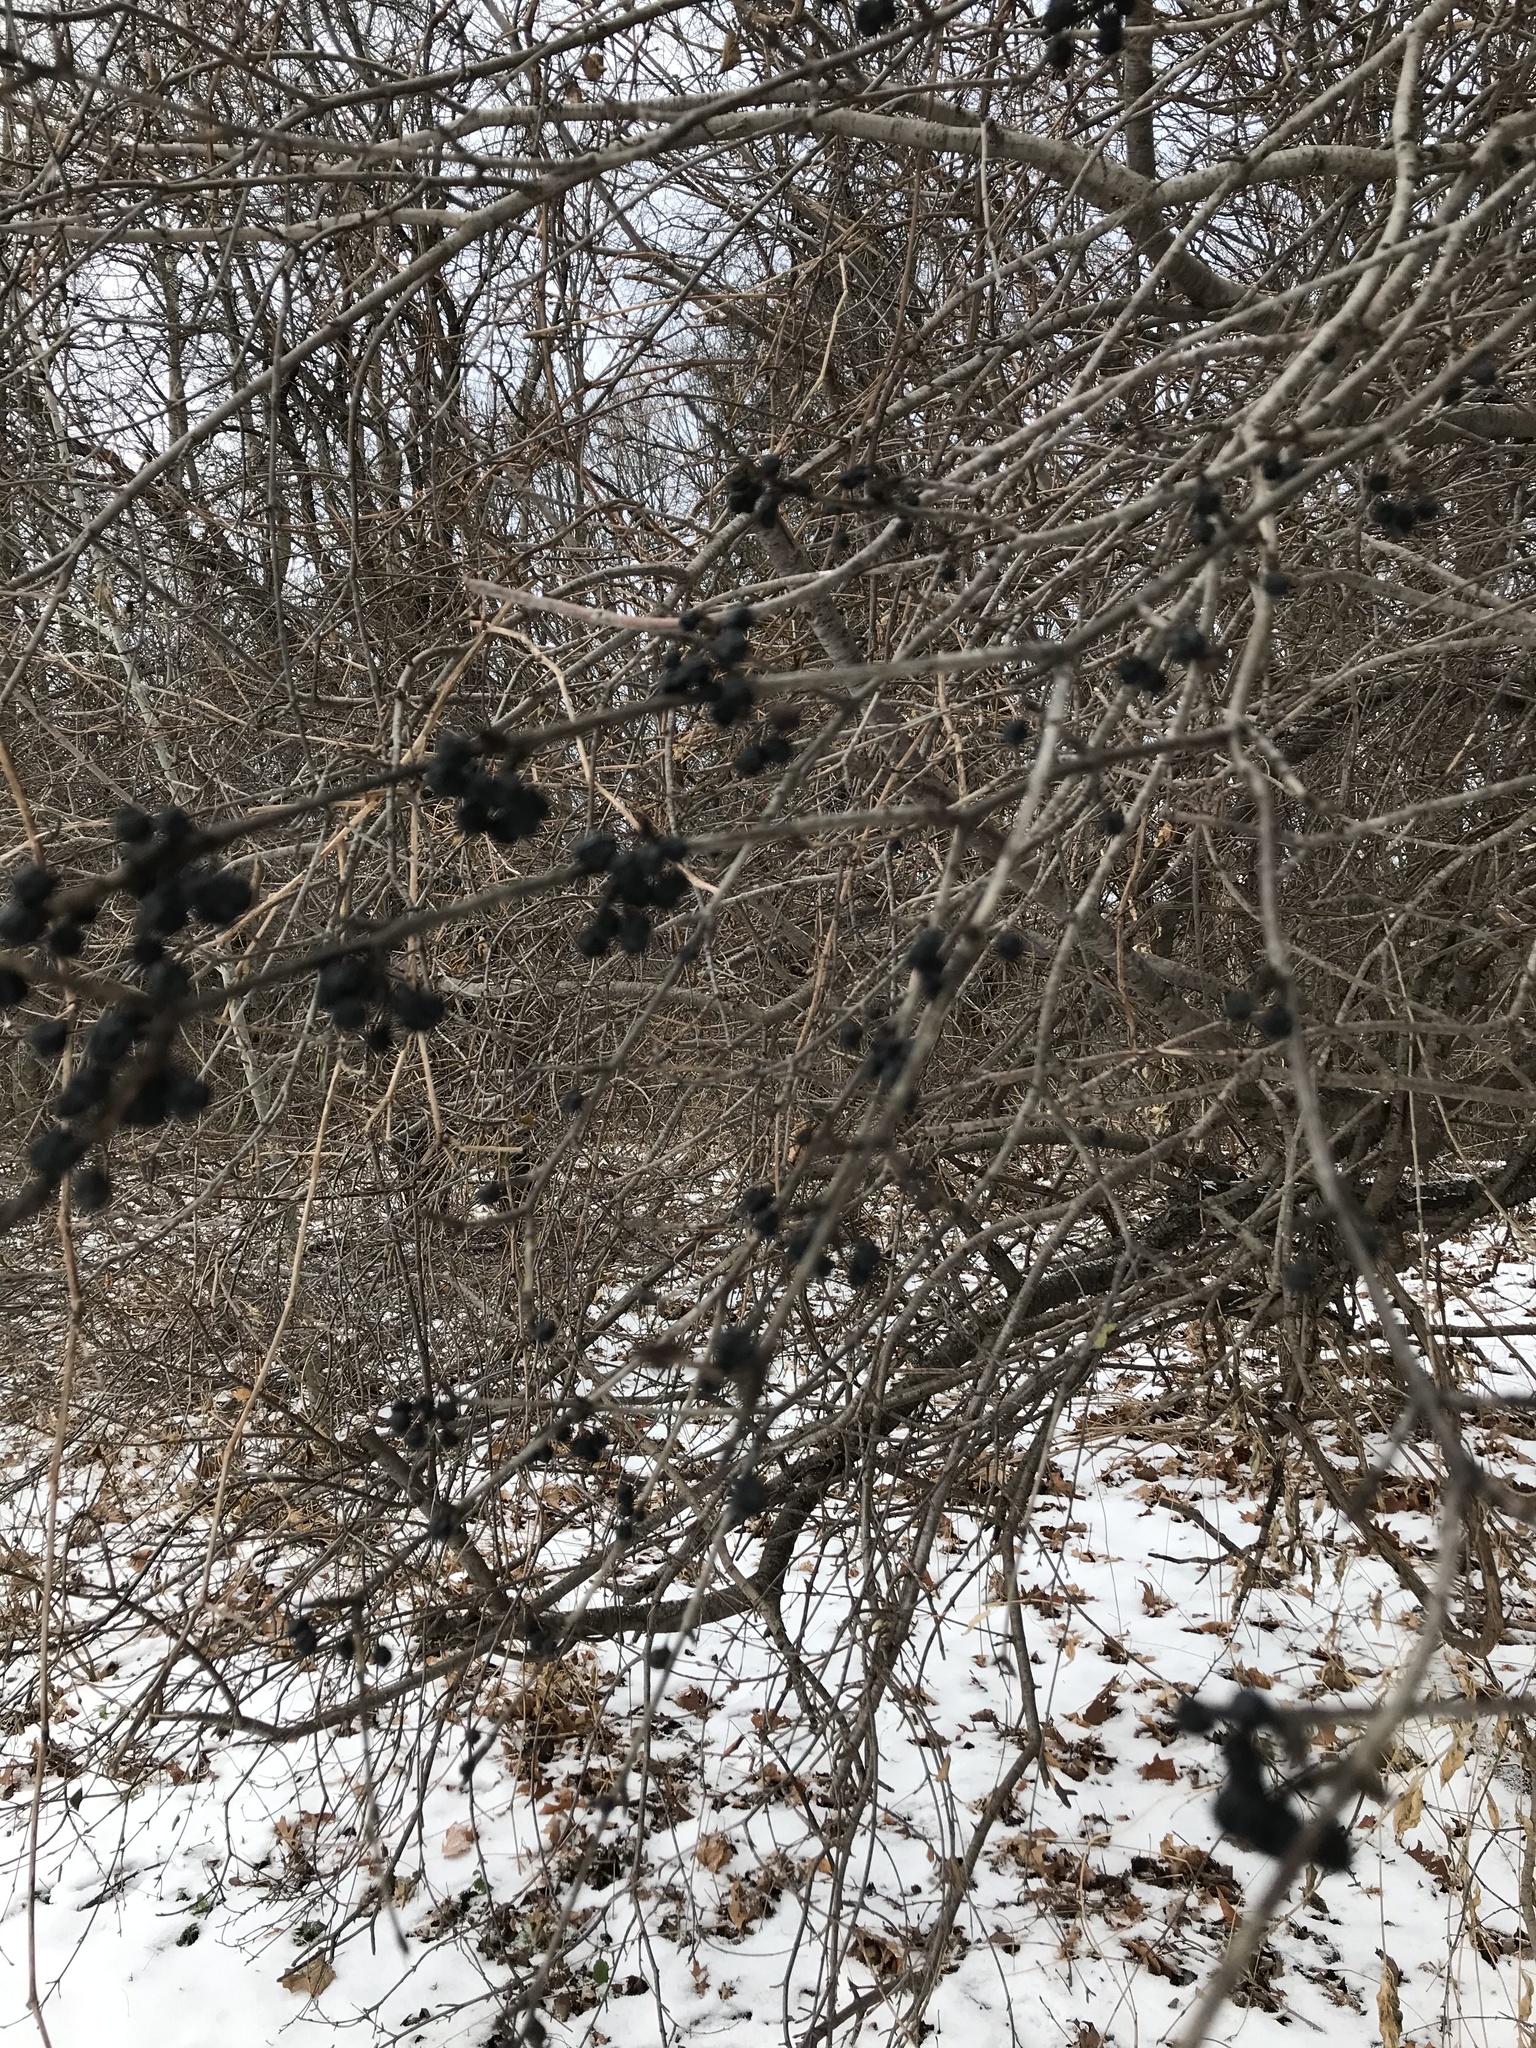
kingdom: Plantae
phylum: Tracheophyta
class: Magnoliopsida
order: Rosales
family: Rhamnaceae
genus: Rhamnus
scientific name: Rhamnus cathartica
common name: Common buckthorn
